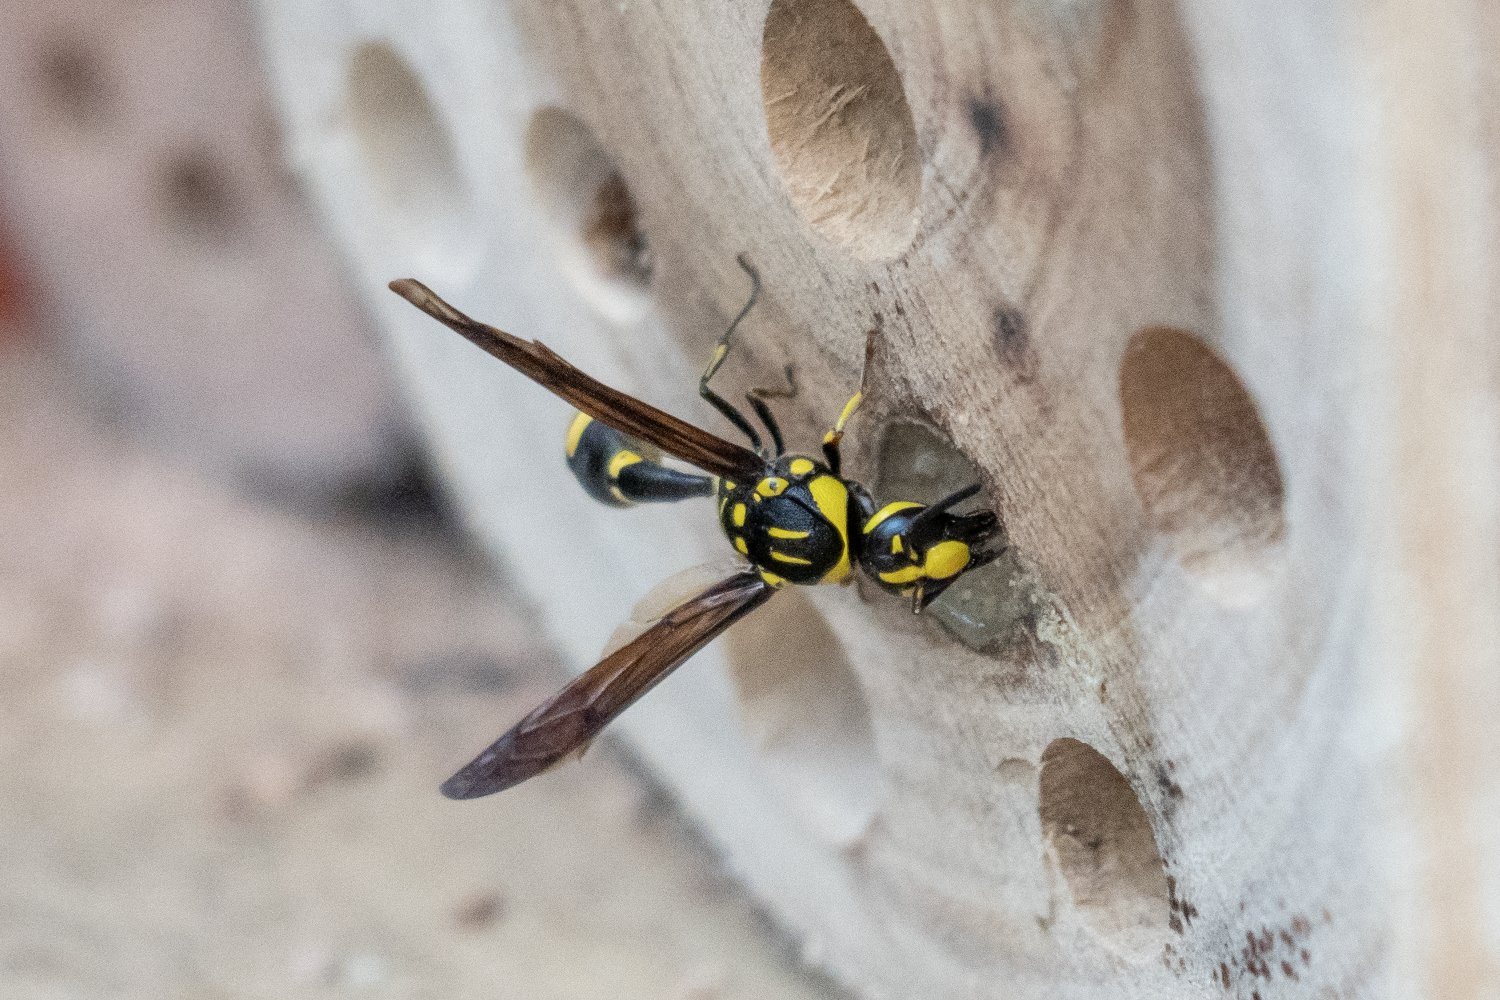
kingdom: Animalia
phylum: Arthropoda
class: Insecta
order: Hymenoptera
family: Eumenidae
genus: Pareumenes
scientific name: Pareumenes quadrispinosus
